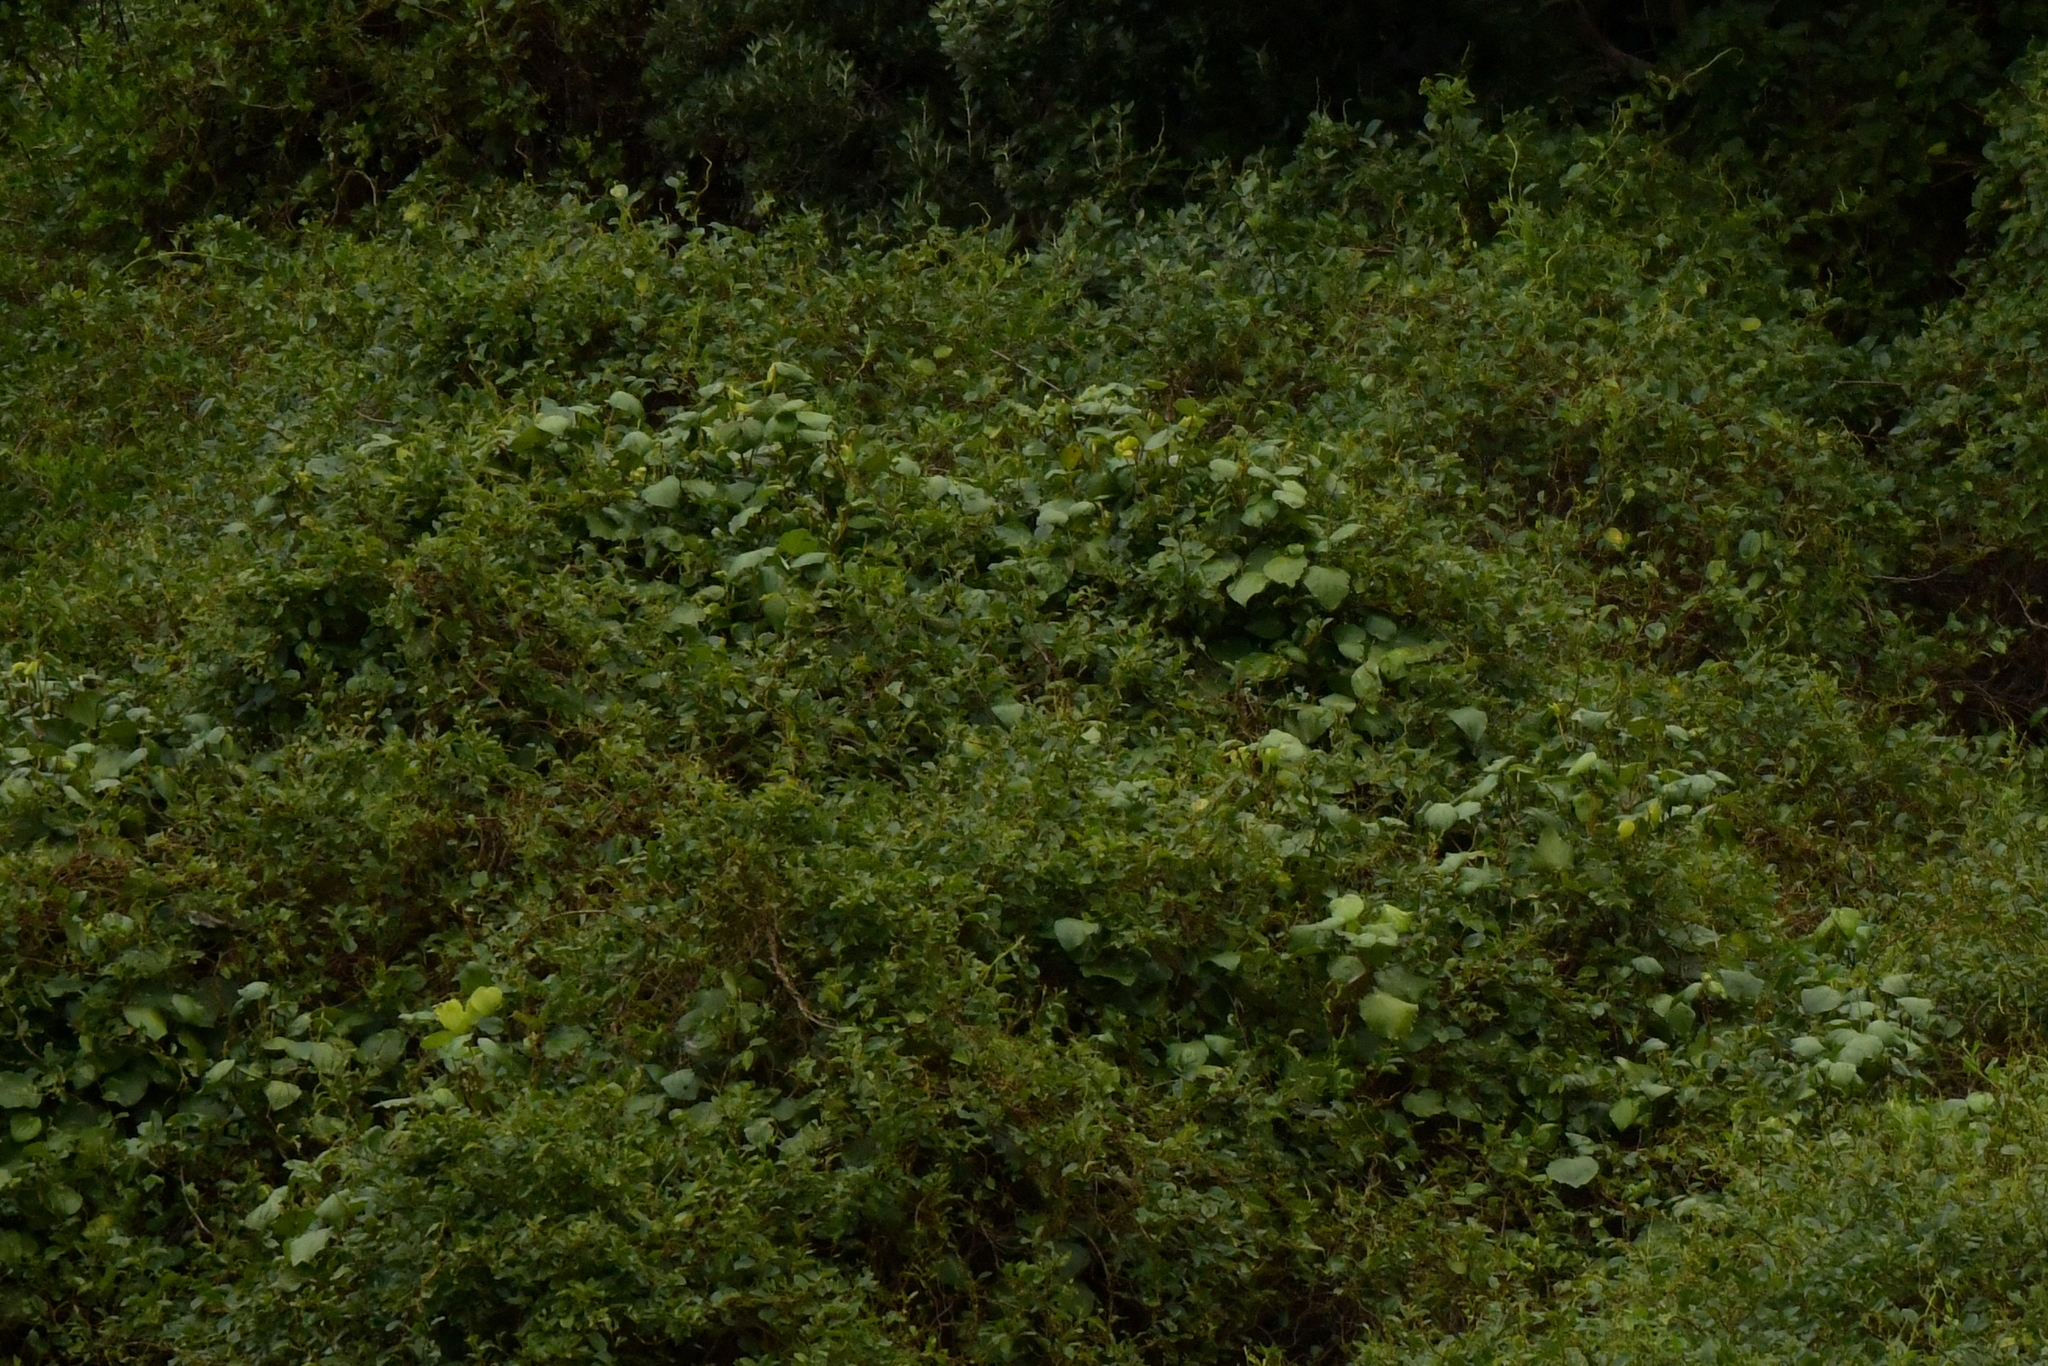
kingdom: Plantae
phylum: Tracheophyta
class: Magnoliopsida
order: Piperales
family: Piperaceae
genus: Macropiper
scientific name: Macropiper excelsum
